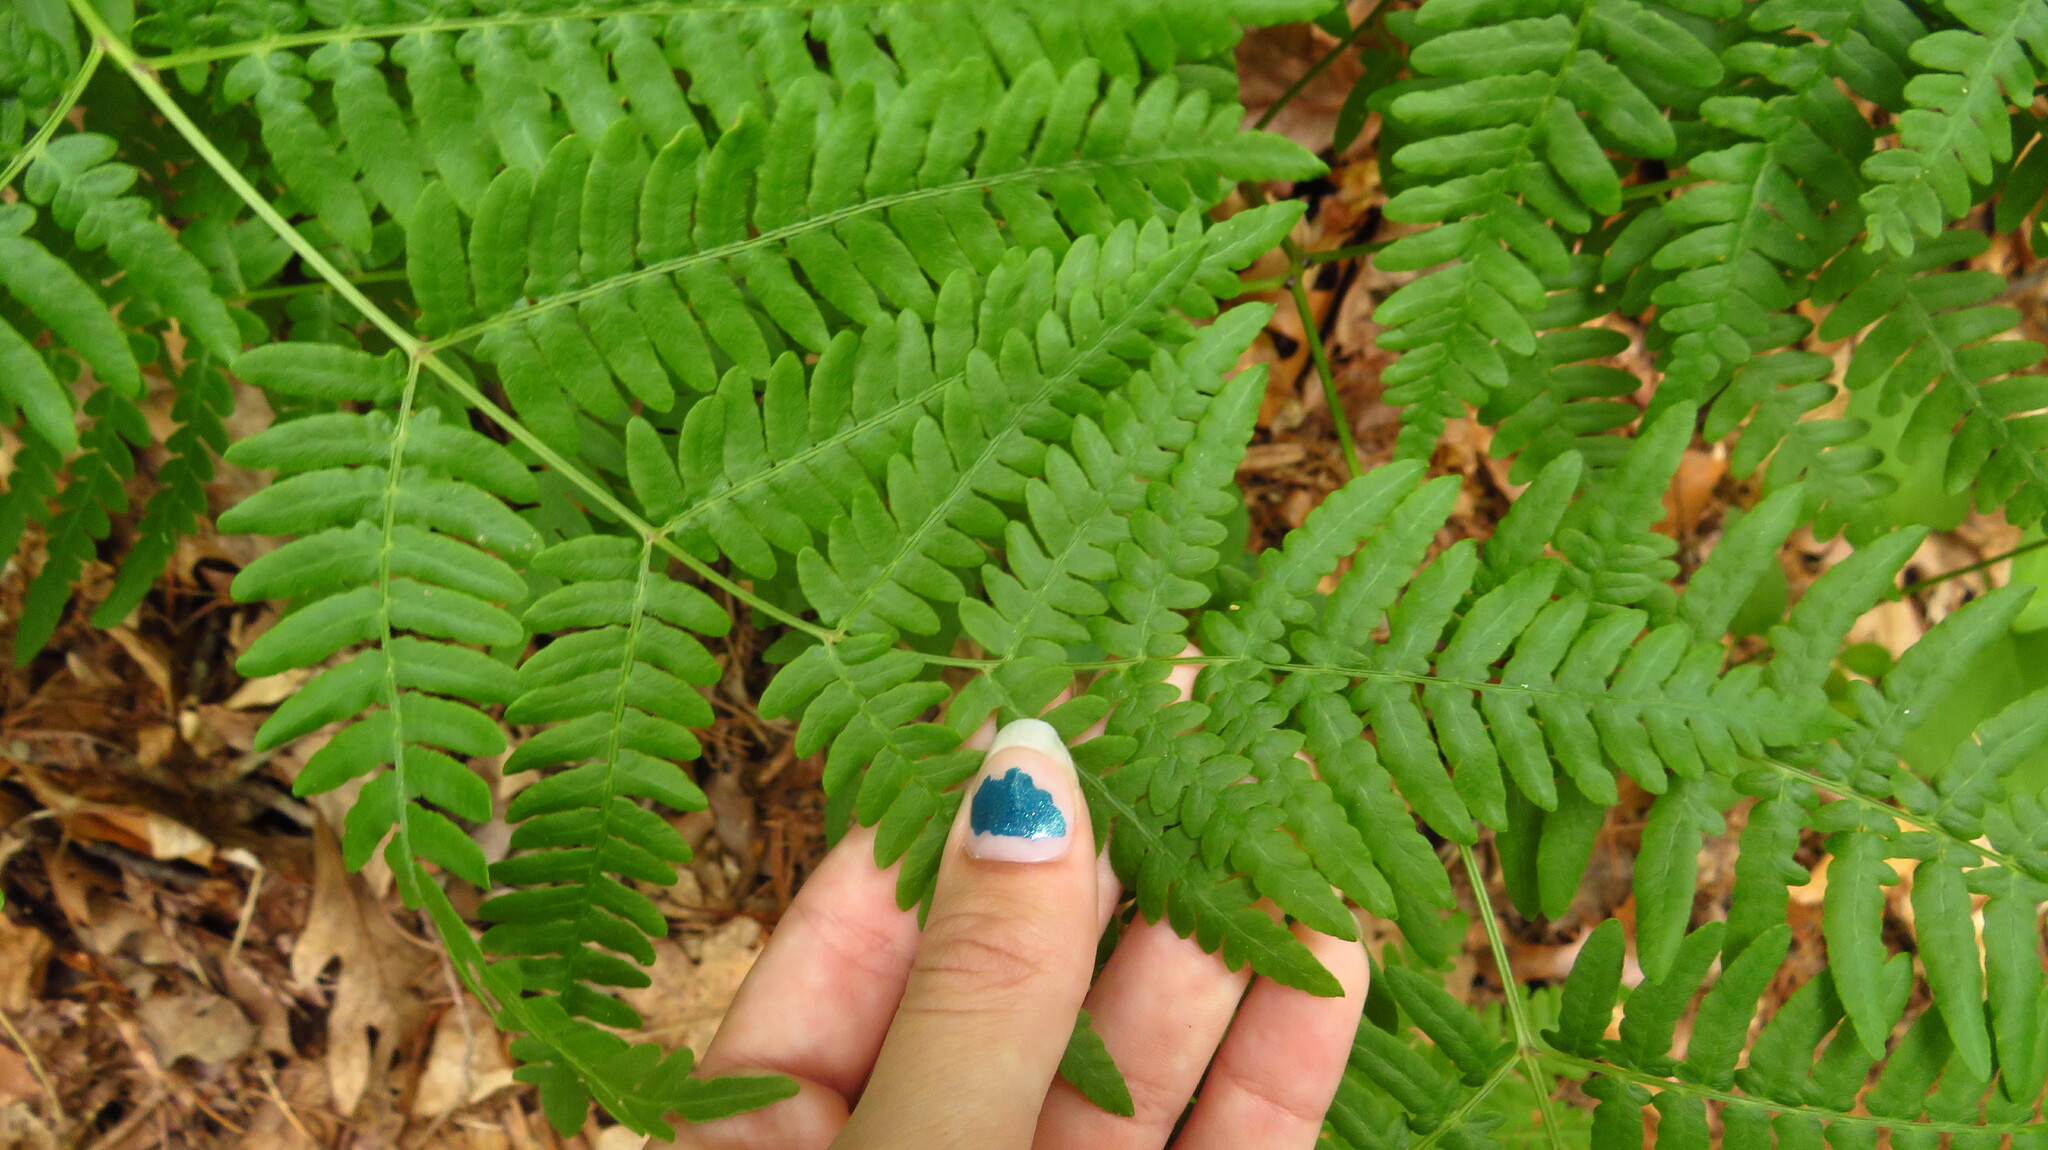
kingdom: Plantae
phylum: Tracheophyta
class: Polypodiopsida
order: Polypodiales
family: Dennstaedtiaceae
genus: Pteridium
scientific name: Pteridium aquilinum
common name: Bracken
